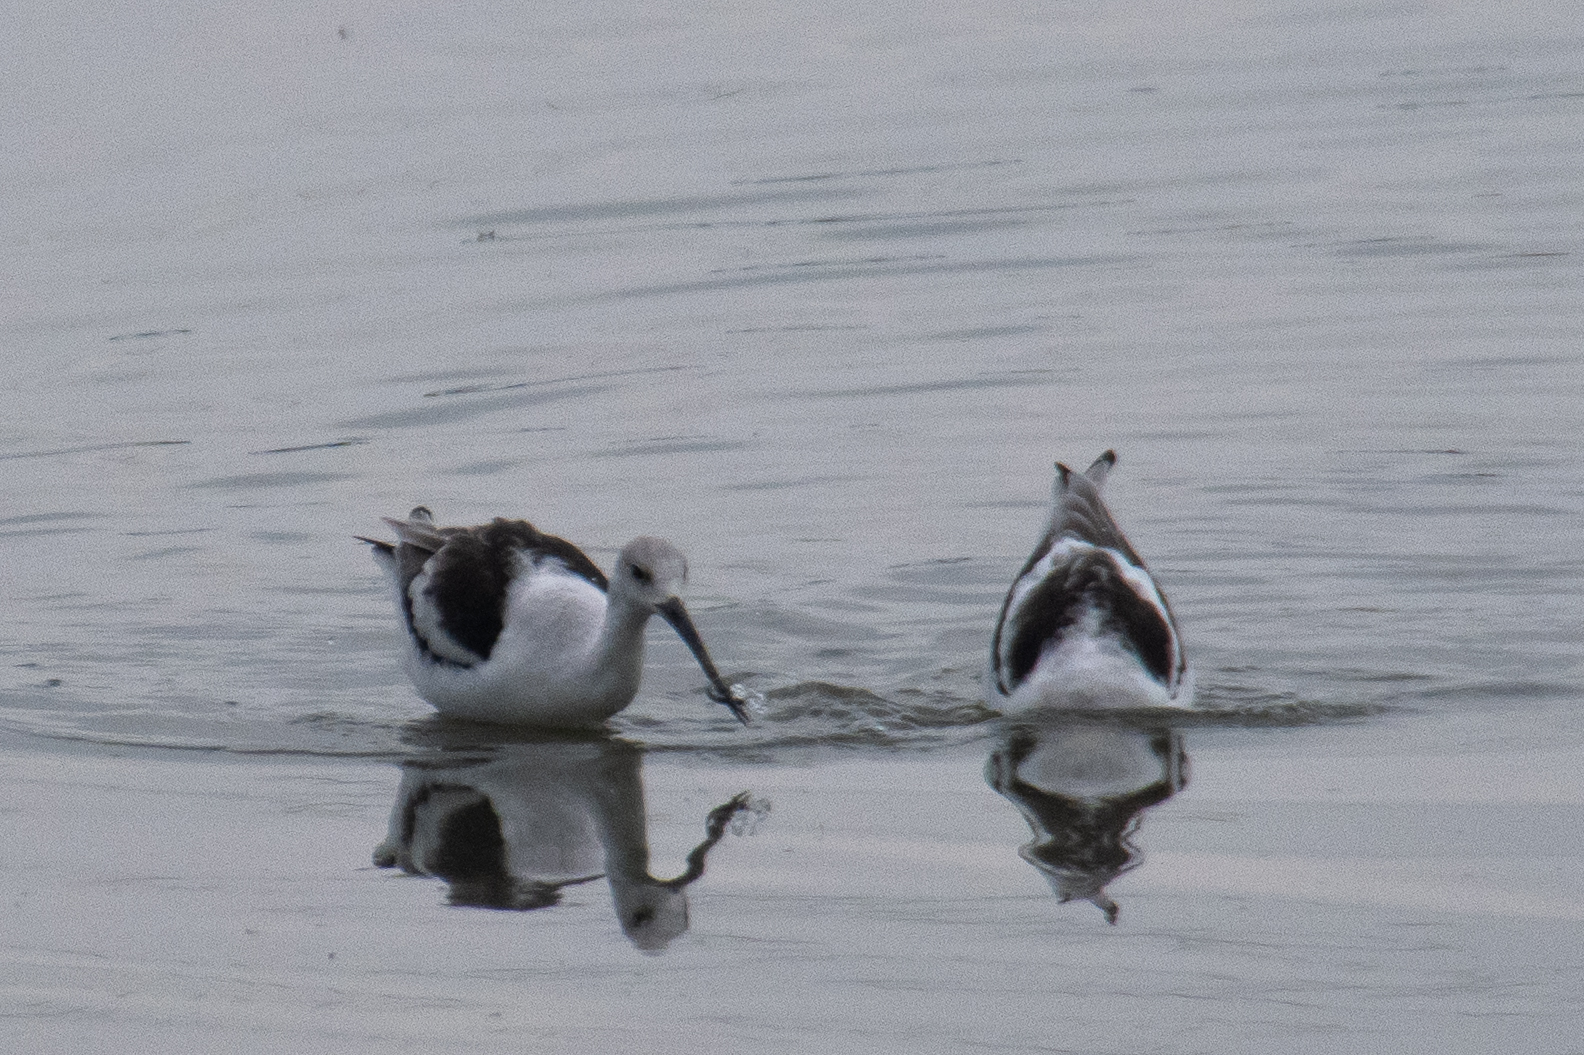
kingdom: Animalia
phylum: Chordata
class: Aves
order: Charadriiformes
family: Recurvirostridae
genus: Recurvirostra
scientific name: Recurvirostra americana
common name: American avocet
